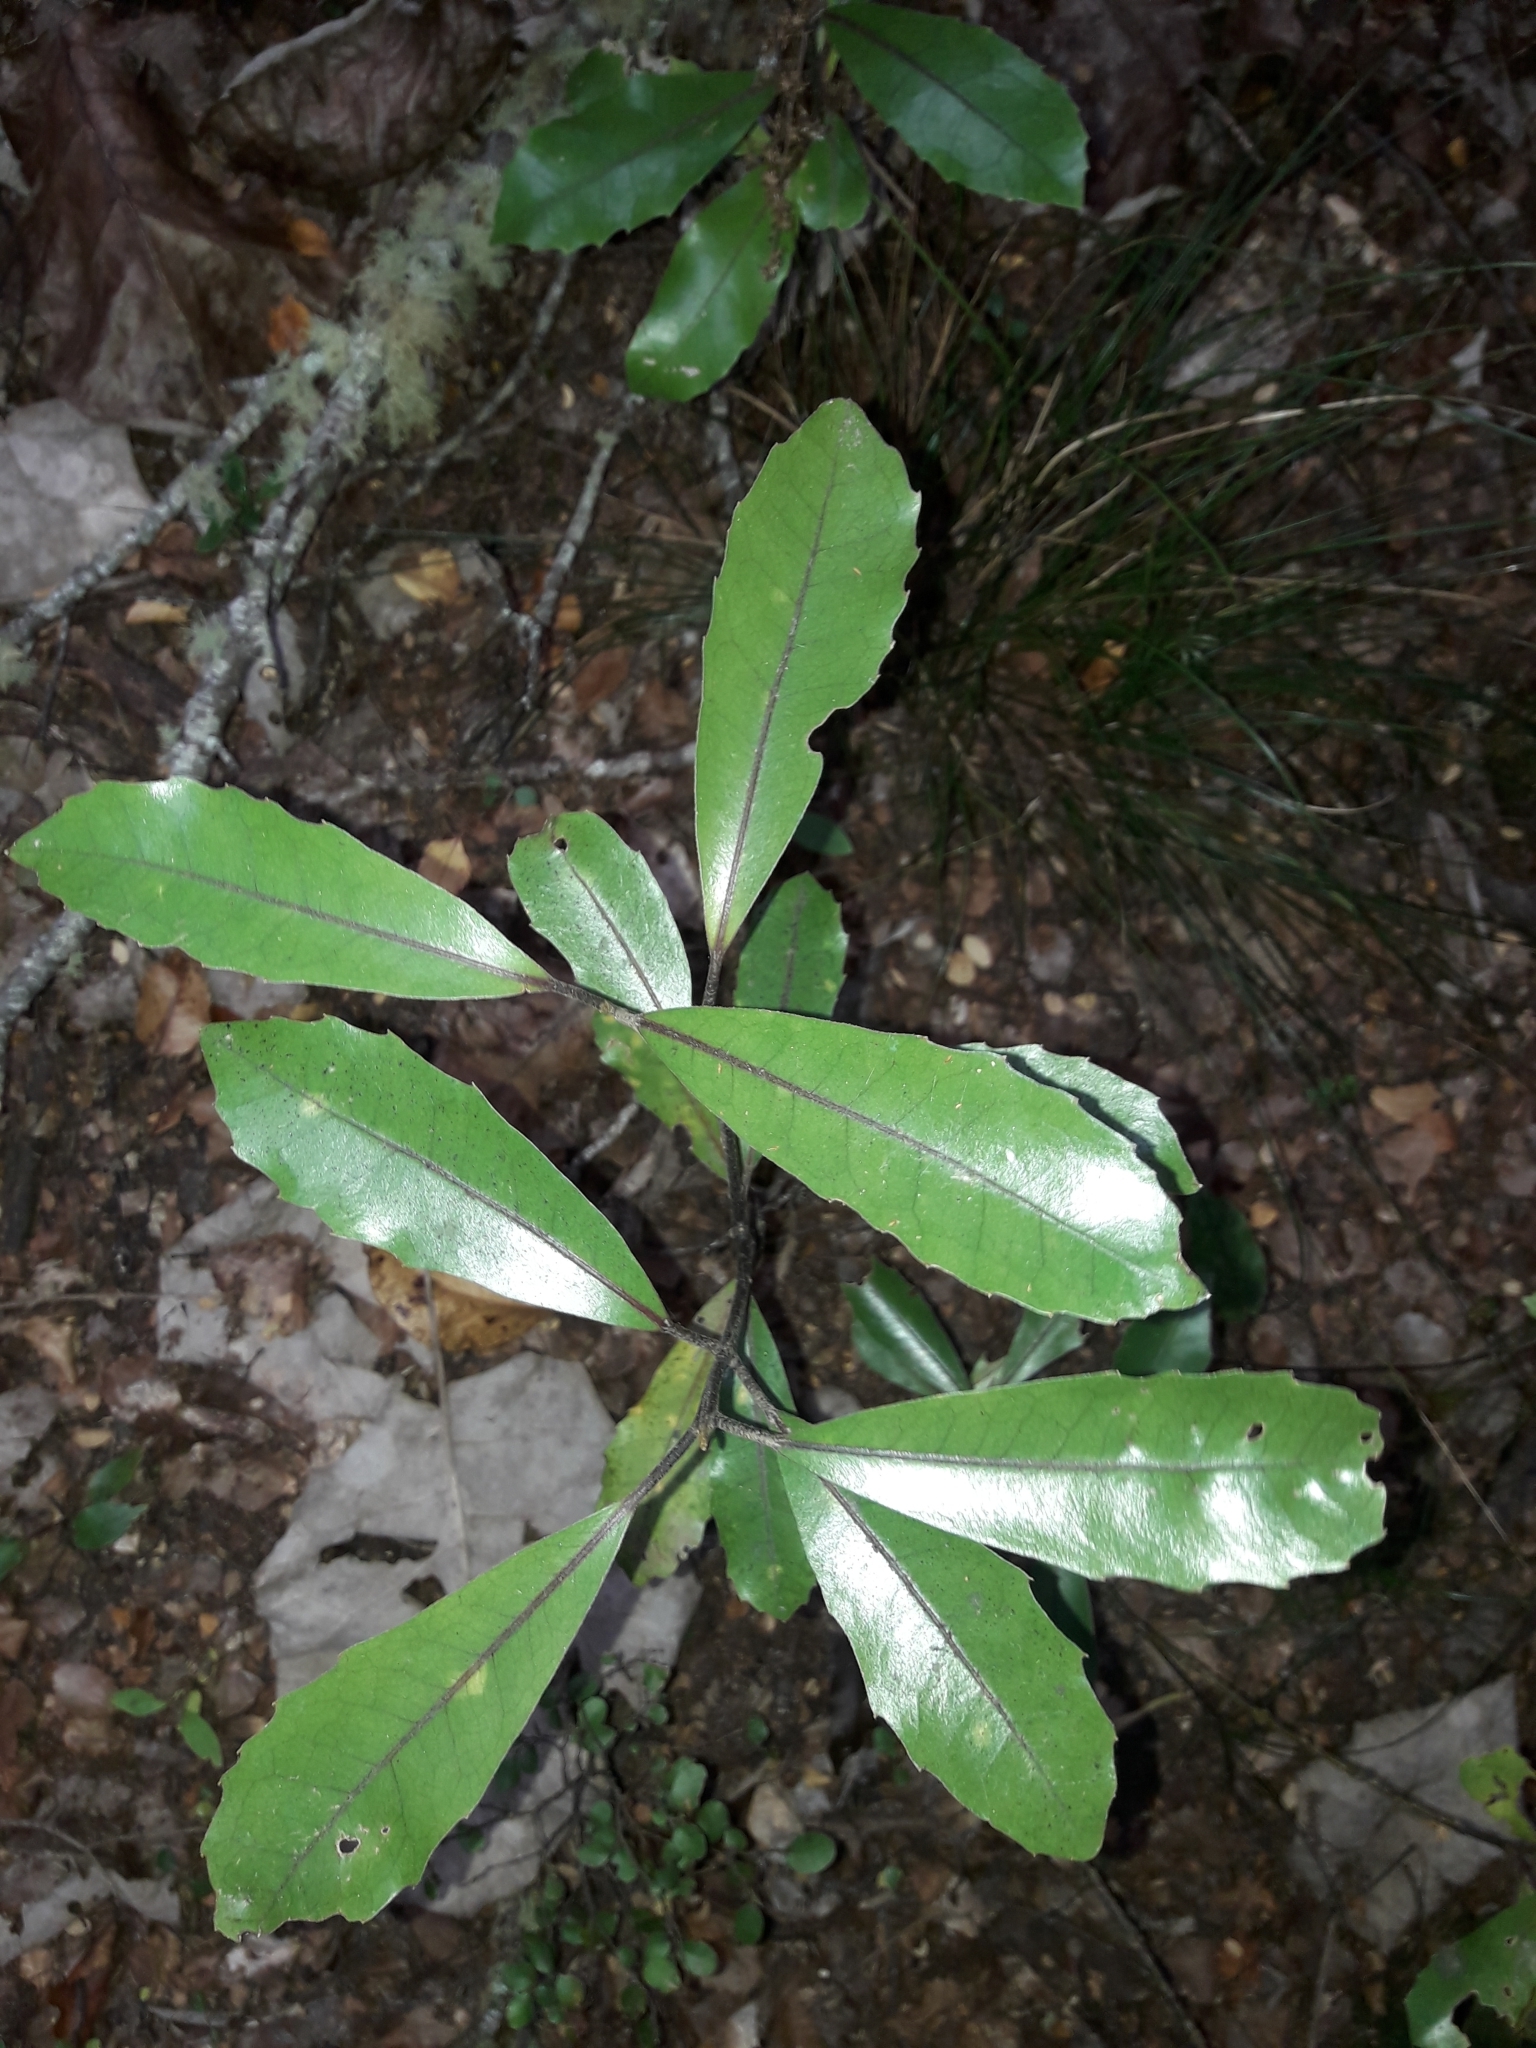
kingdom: Plantae
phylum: Tracheophyta
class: Magnoliopsida
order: Laurales
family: Monimiaceae
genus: Hedycarya
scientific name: Hedycarya arborea
